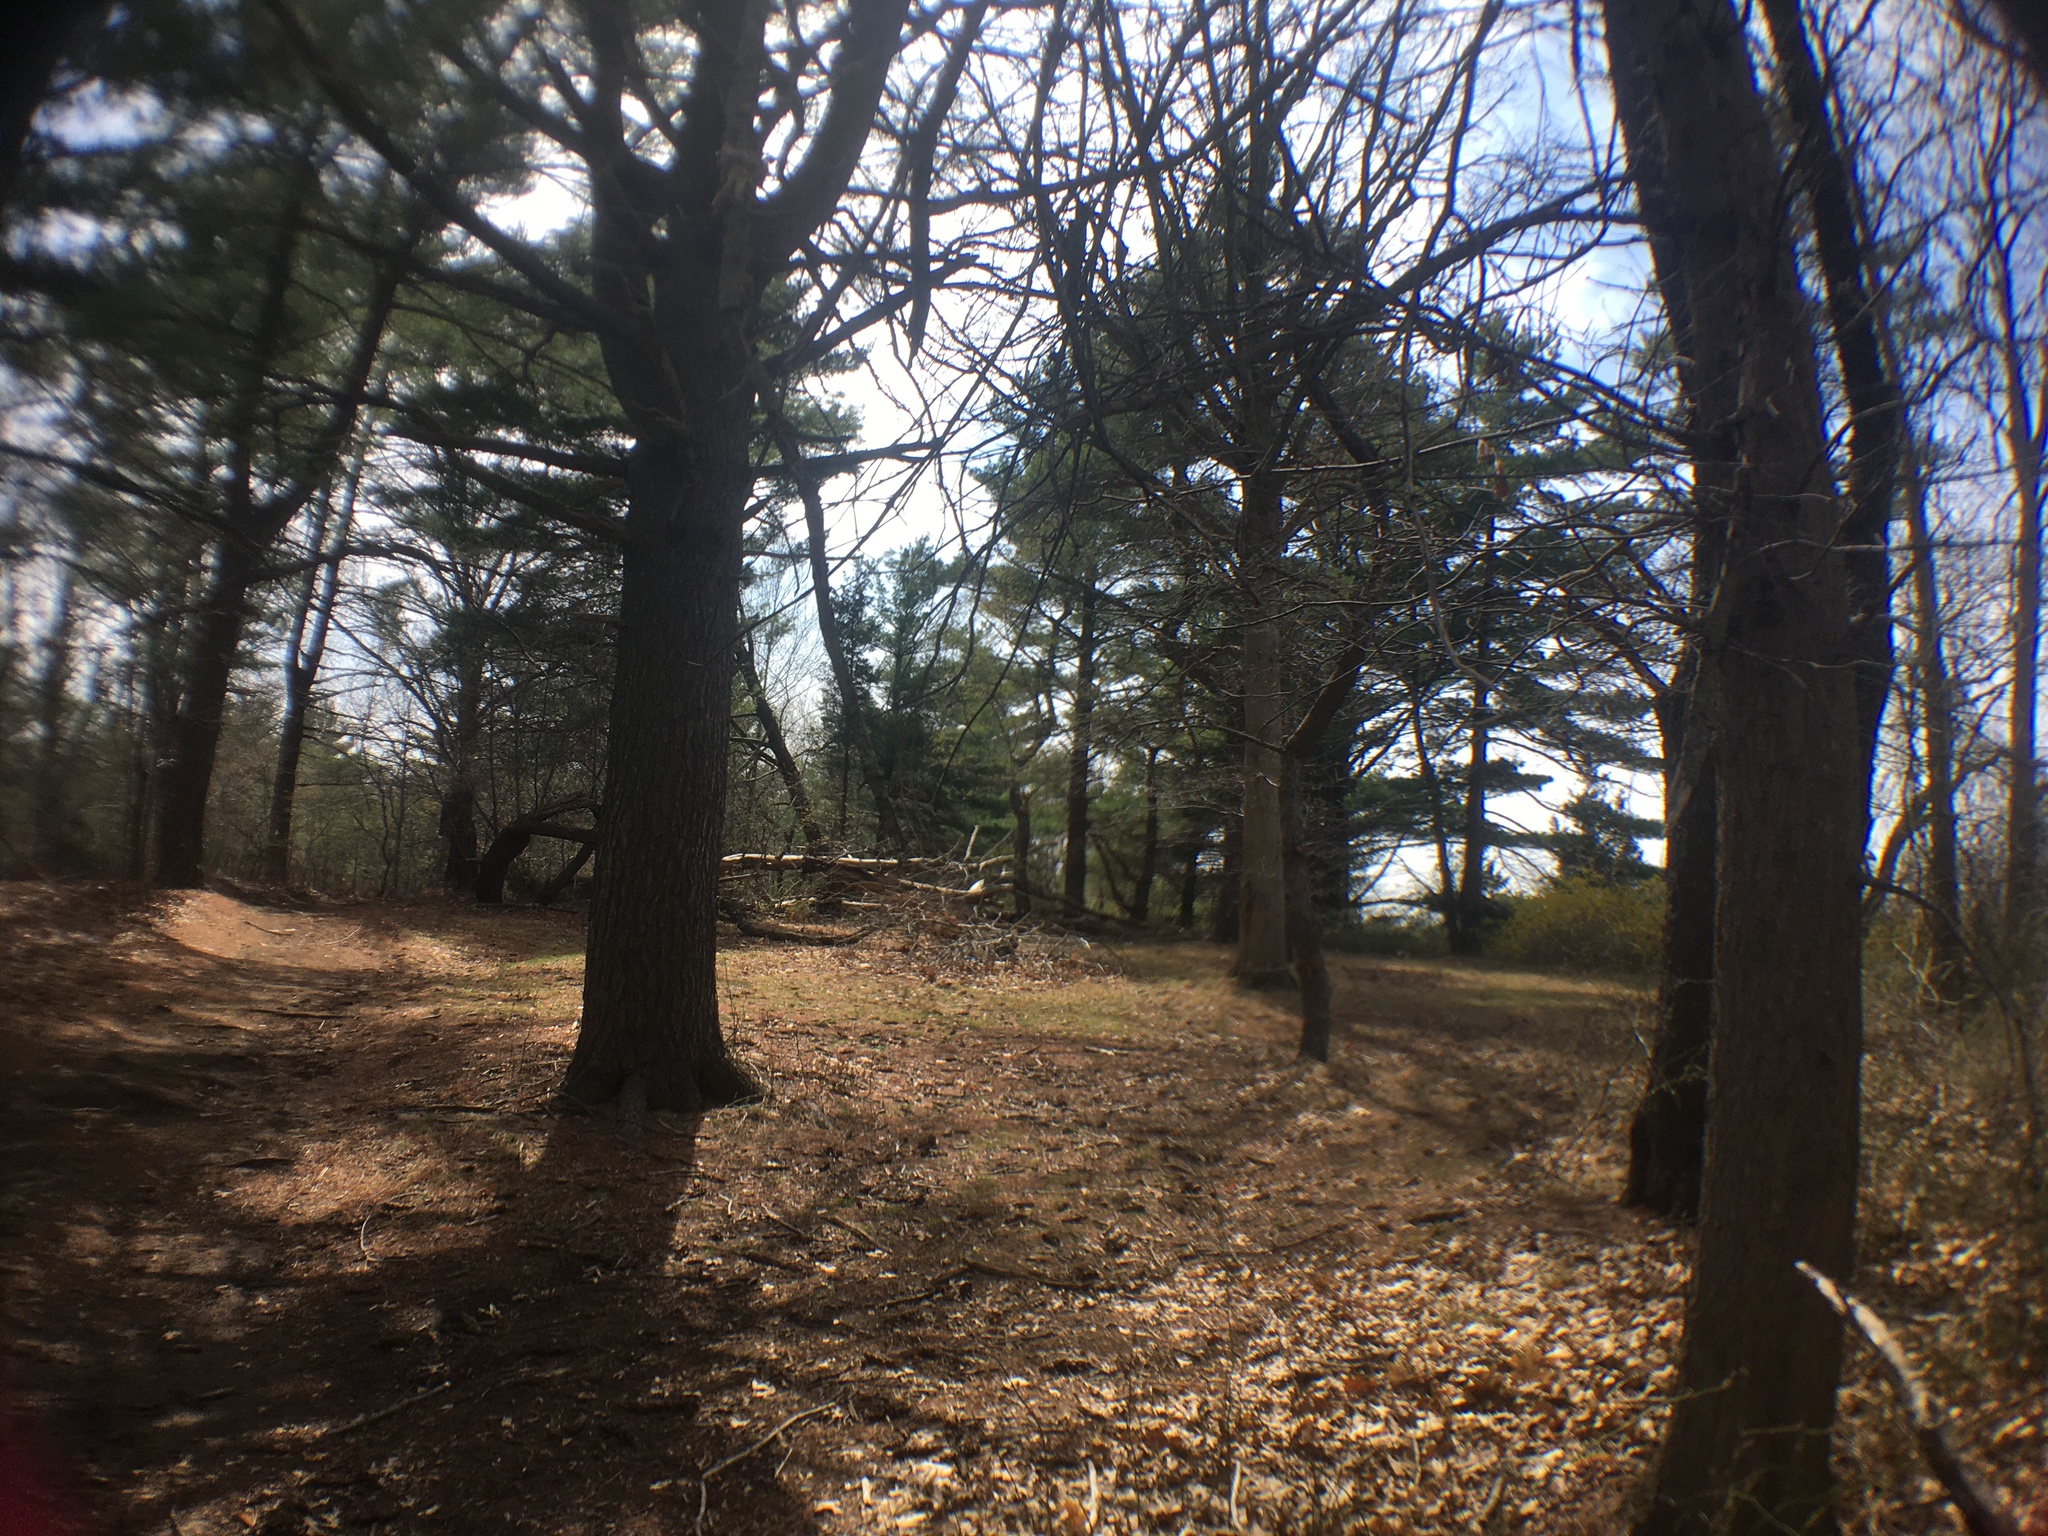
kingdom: Plantae
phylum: Tracheophyta
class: Pinopsida
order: Pinales
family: Pinaceae
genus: Pinus
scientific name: Pinus strobus
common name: Weymouth pine
